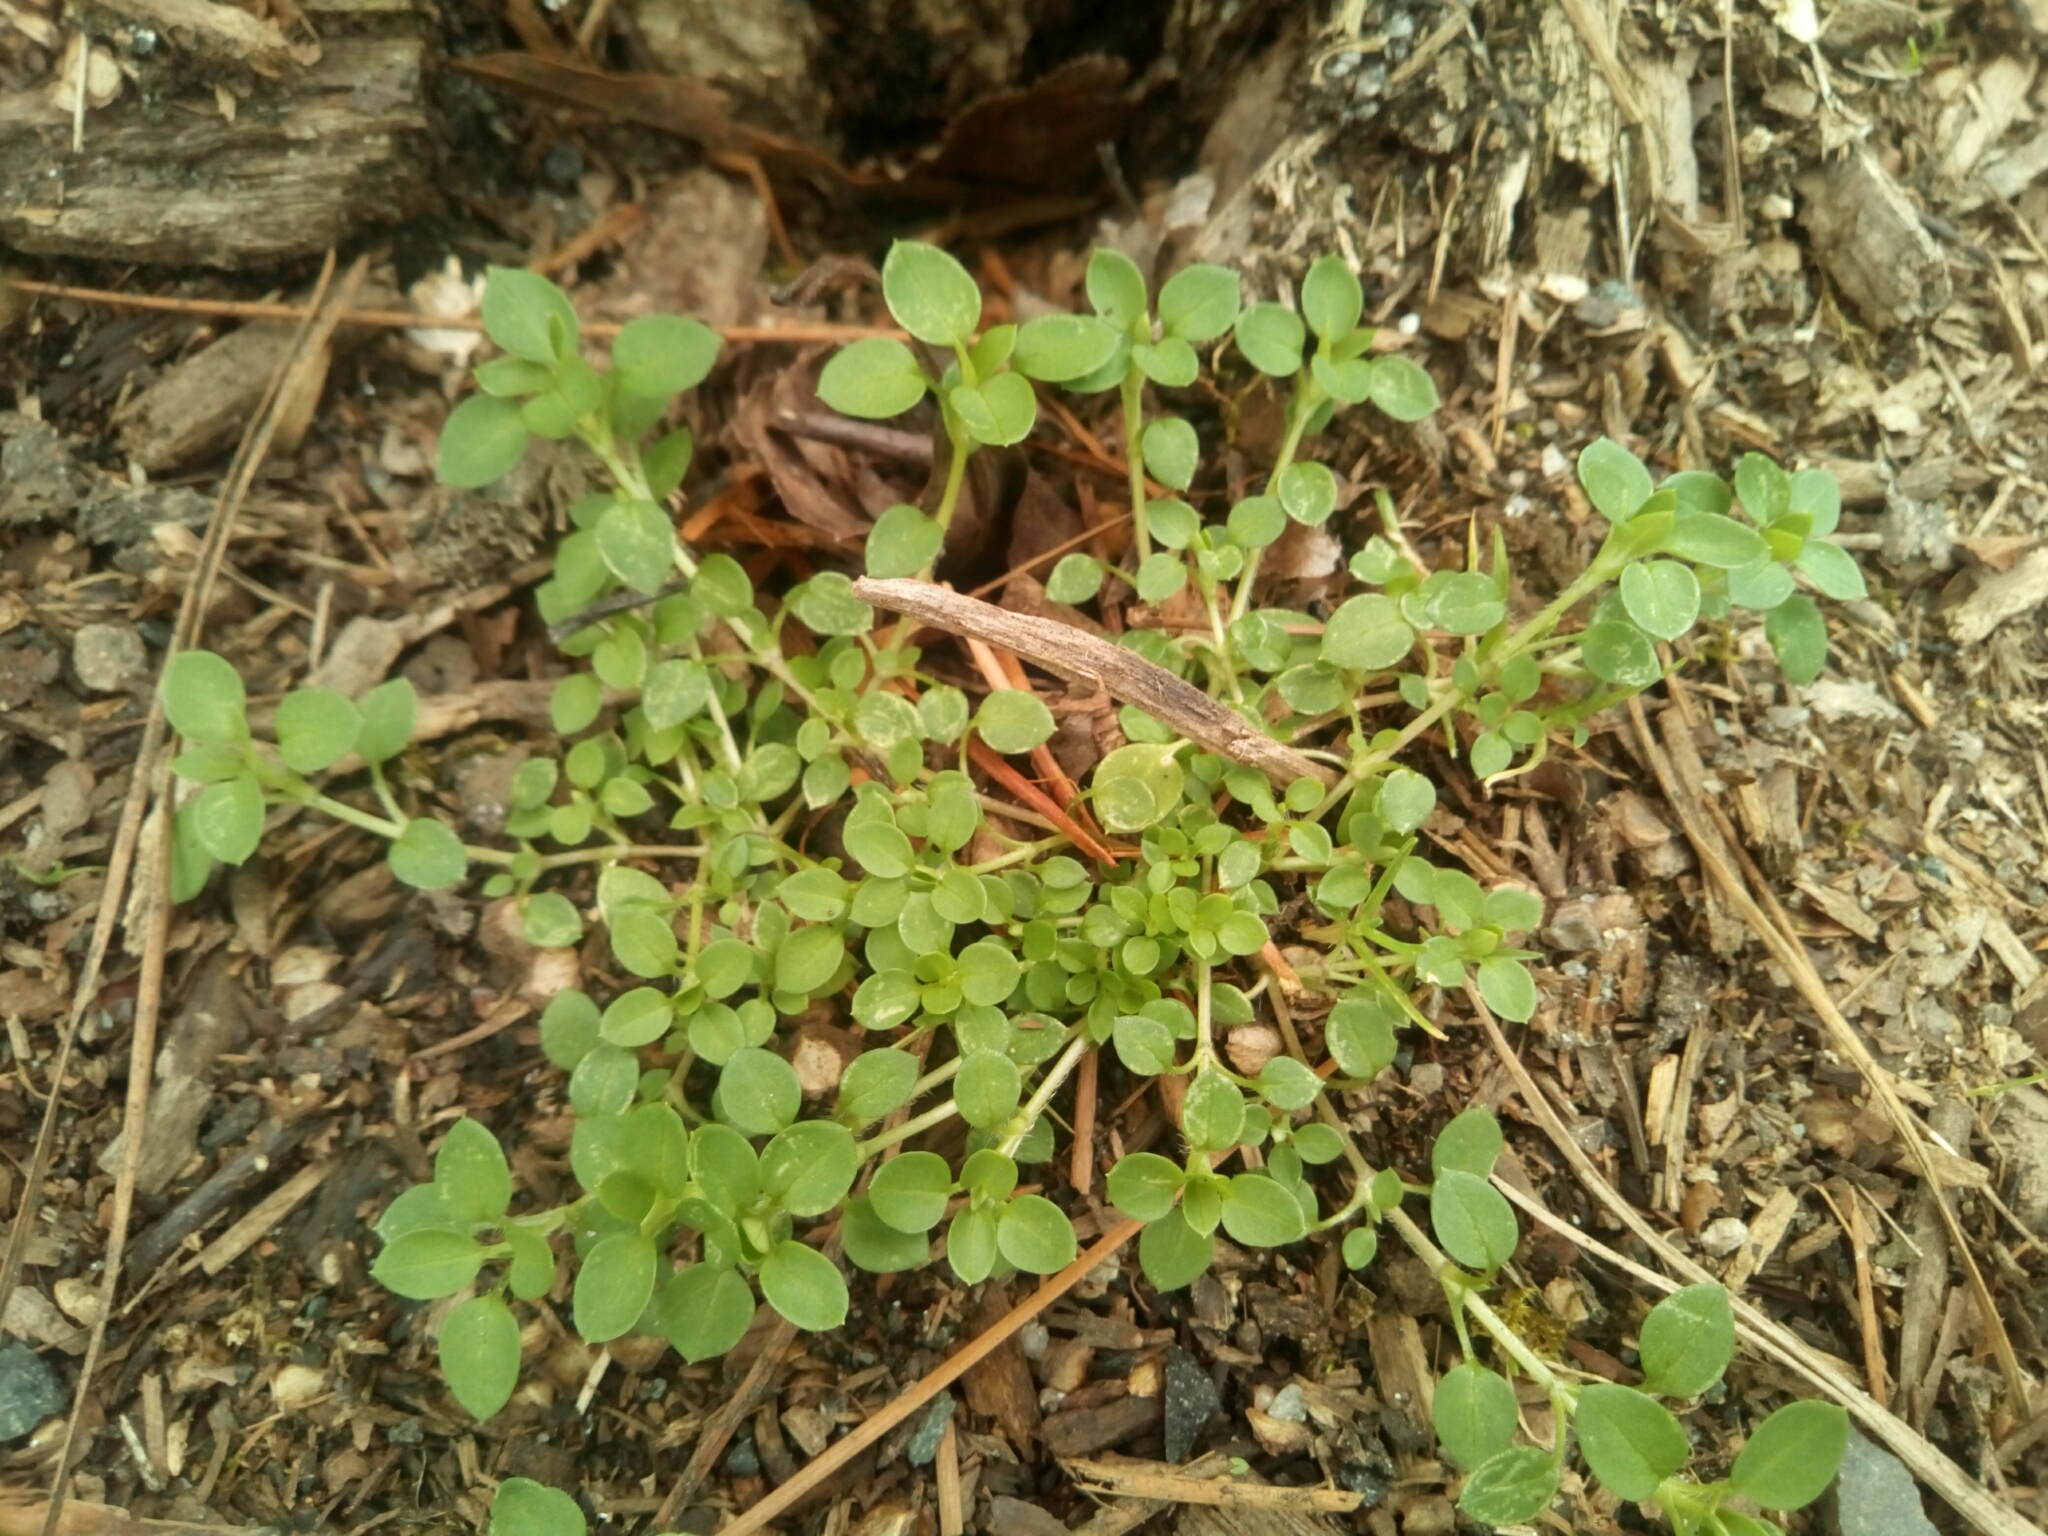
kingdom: Plantae
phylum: Tracheophyta
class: Magnoliopsida
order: Caryophyllales
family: Caryophyllaceae
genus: Stellaria
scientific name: Stellaria media
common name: Common chickweed
